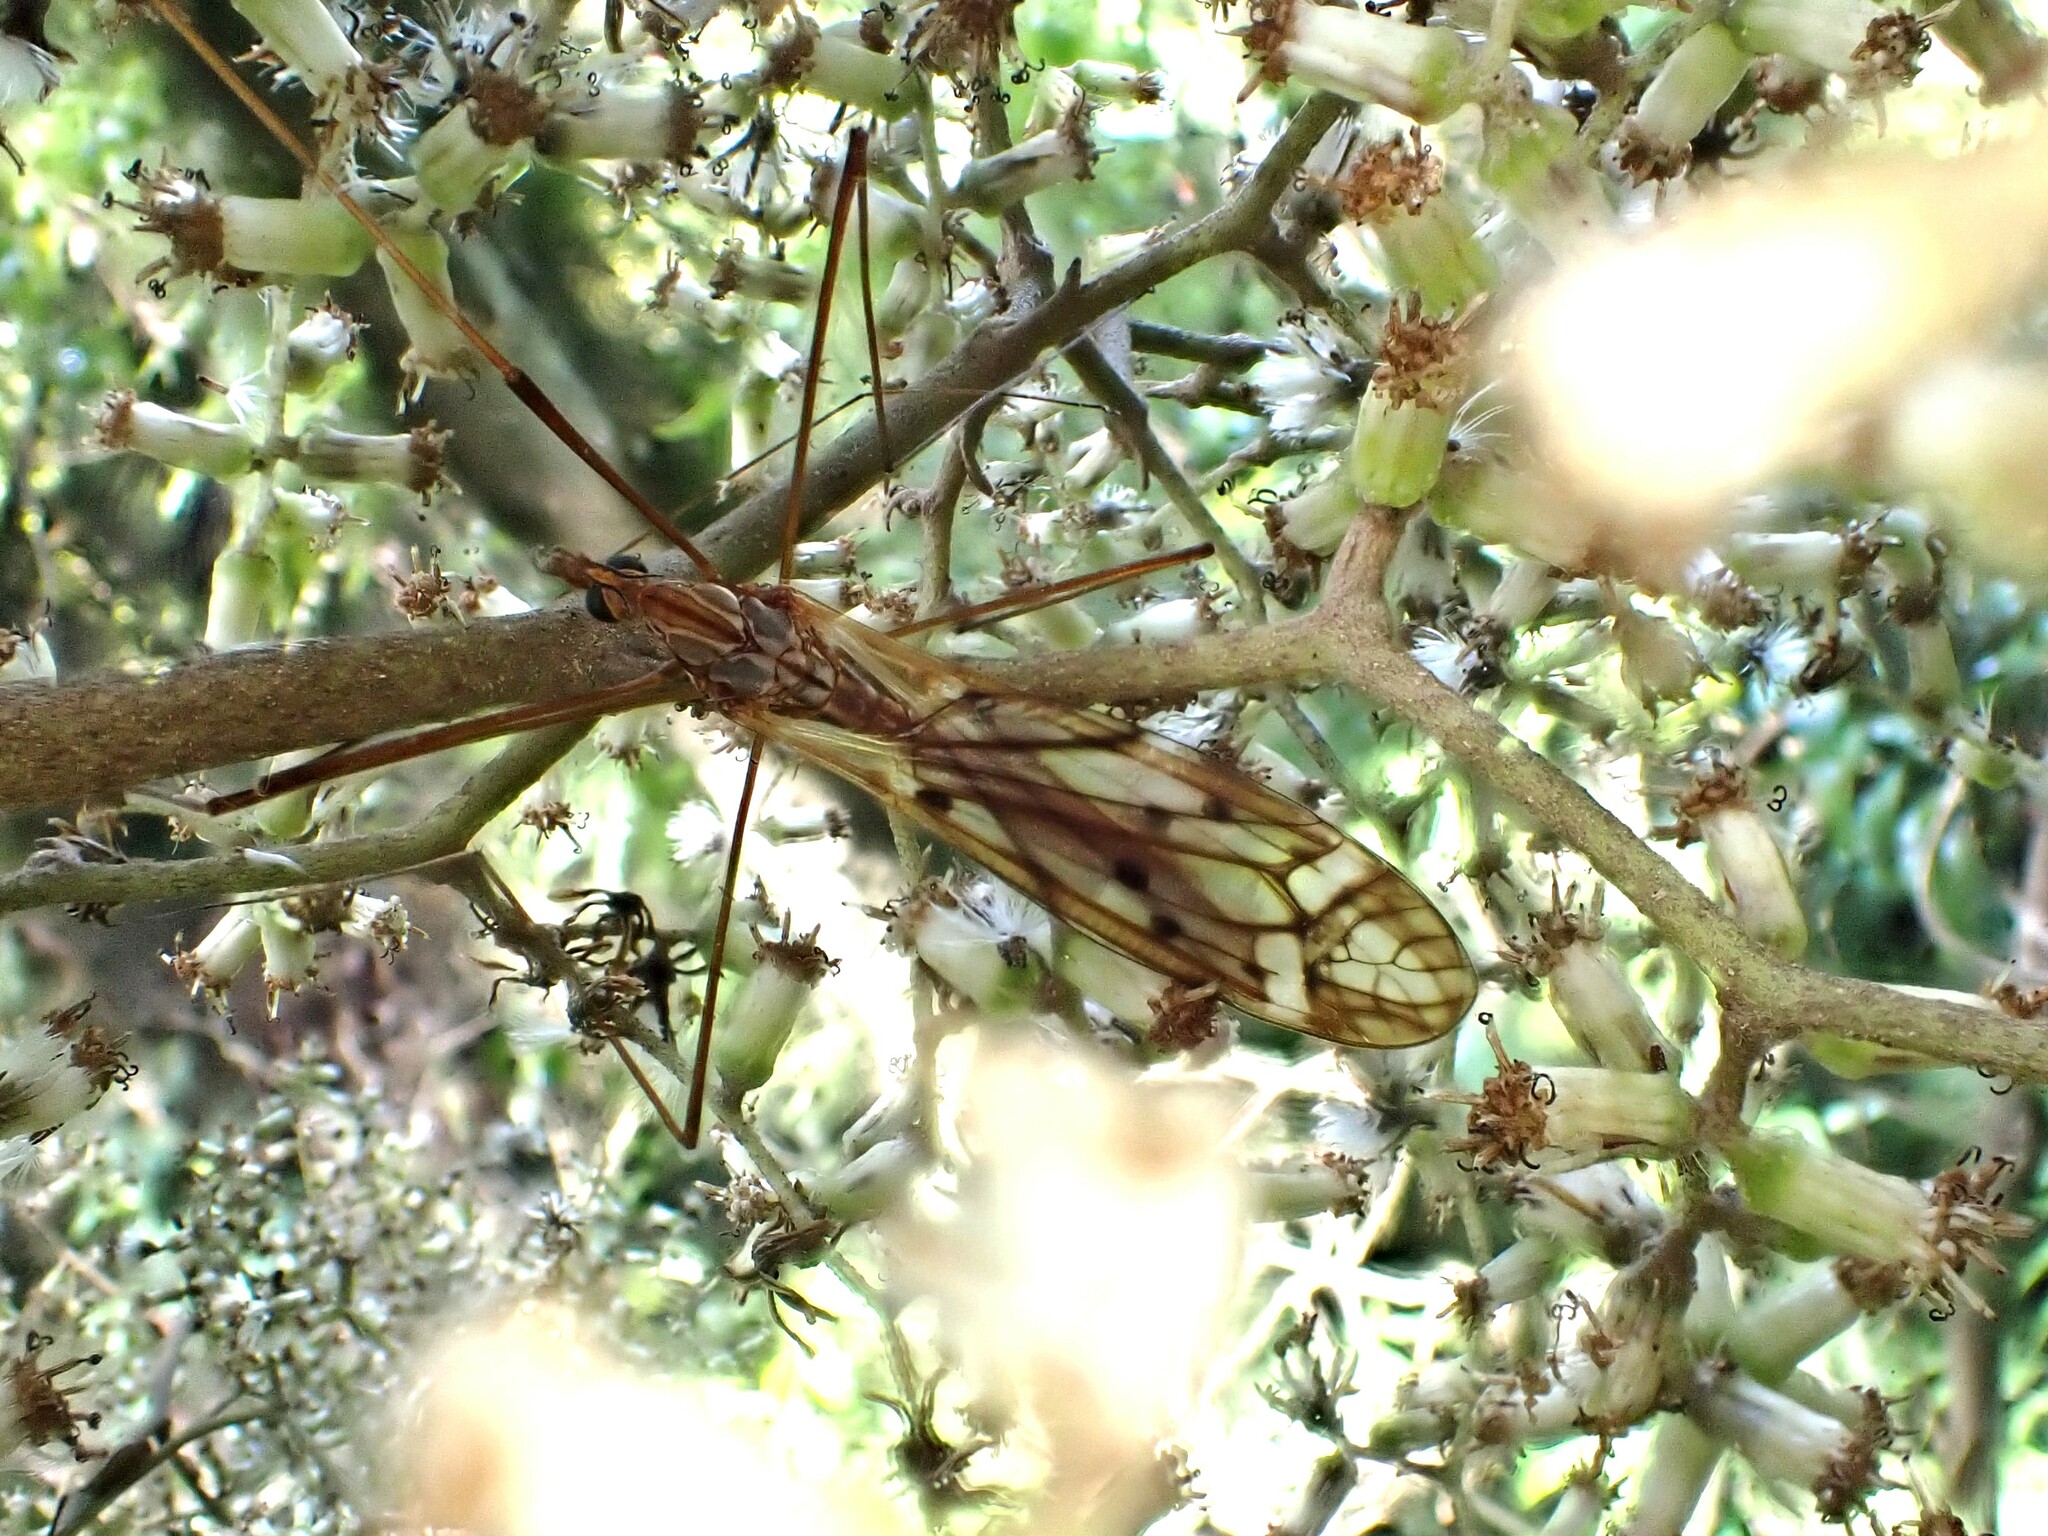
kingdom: Animalia
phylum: Arthropoda
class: Insecta
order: Diptera
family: Tipulidae
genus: Zelandotipula
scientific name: Zelandotipula novarae
